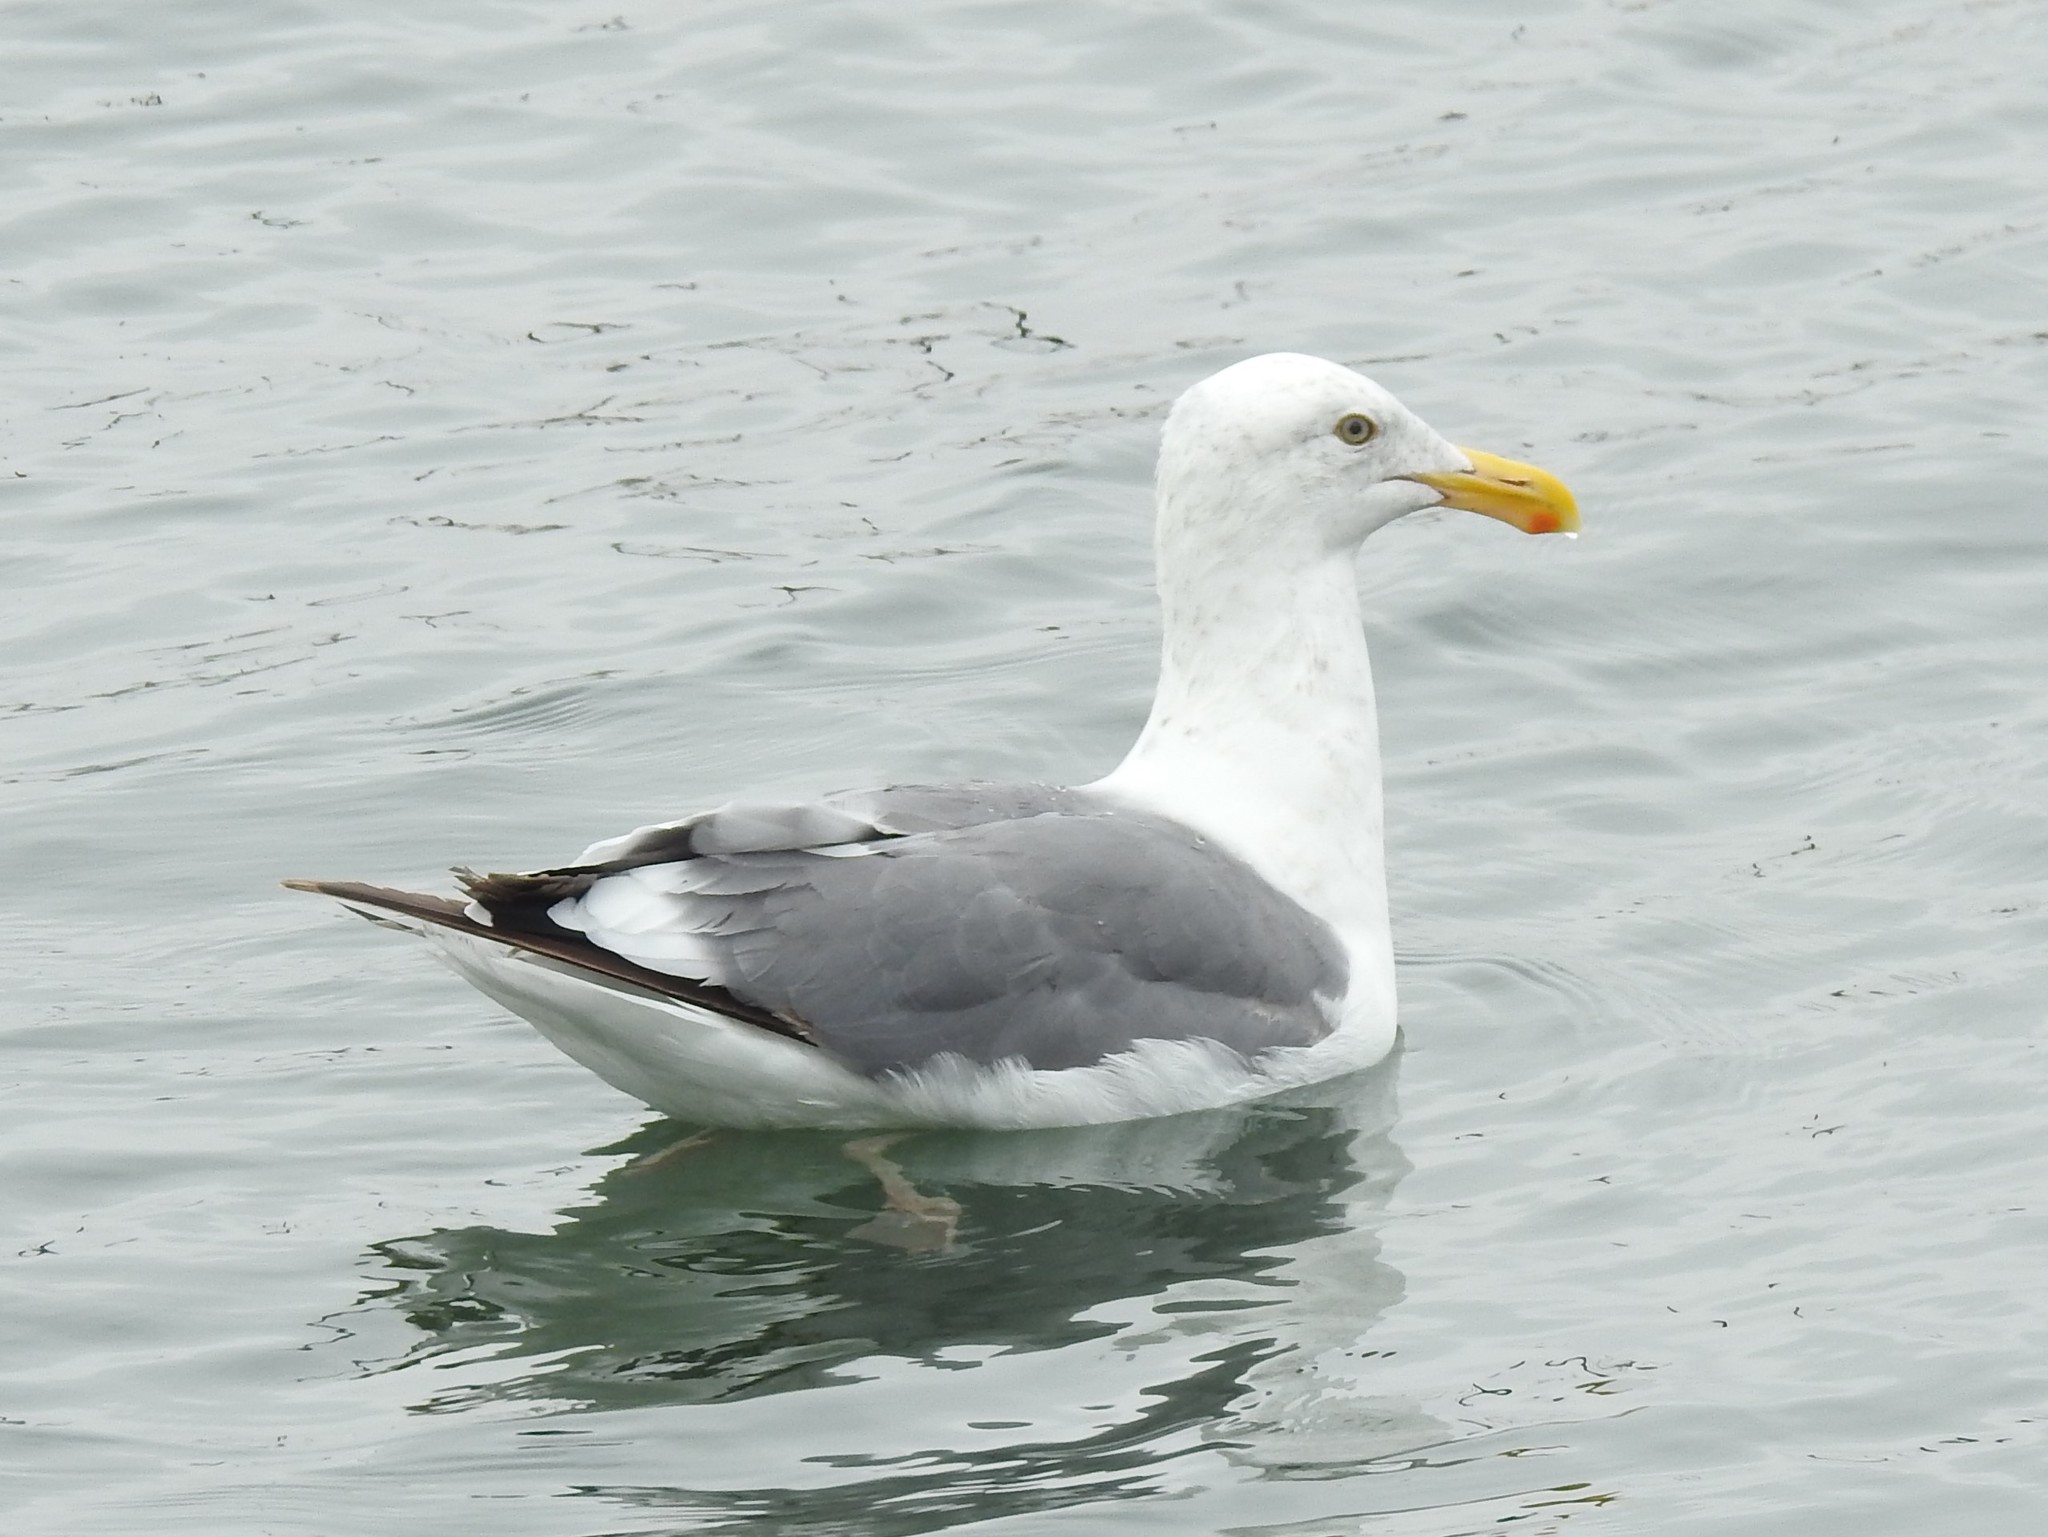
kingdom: Animalia
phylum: Chordata
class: Aves
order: Charadriiformes
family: Laridae
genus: Larus
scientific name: Larus occidentalis
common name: Western gull
